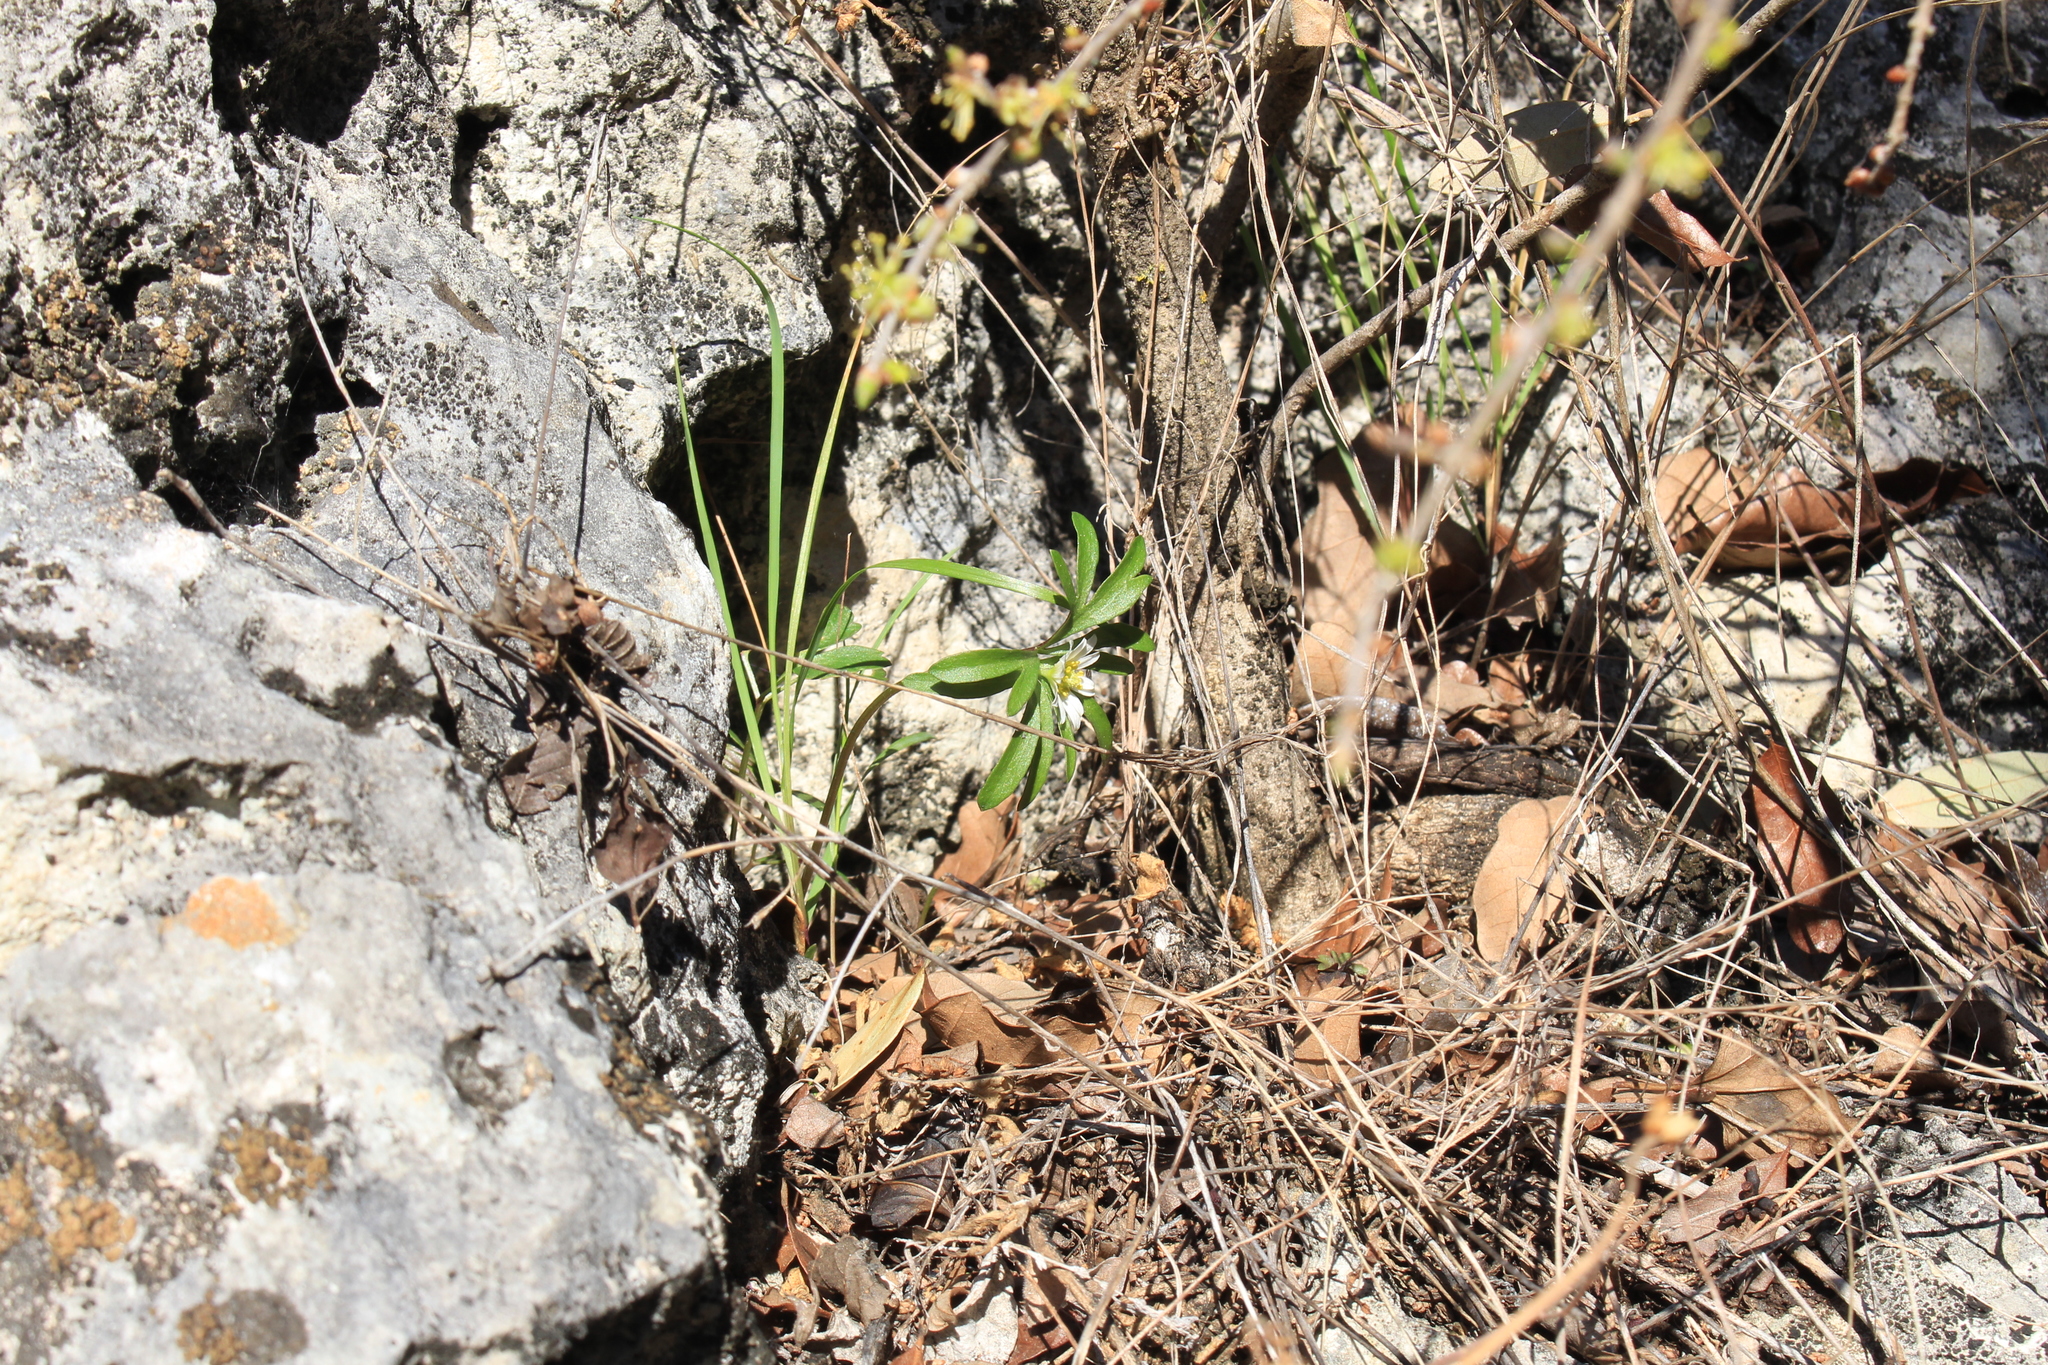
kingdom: Plantae
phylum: Tracheophyta
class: Magnoliopsida
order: Ranunculales
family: Ranunculaceae
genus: Anemone
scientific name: Anemone edwardsiana
